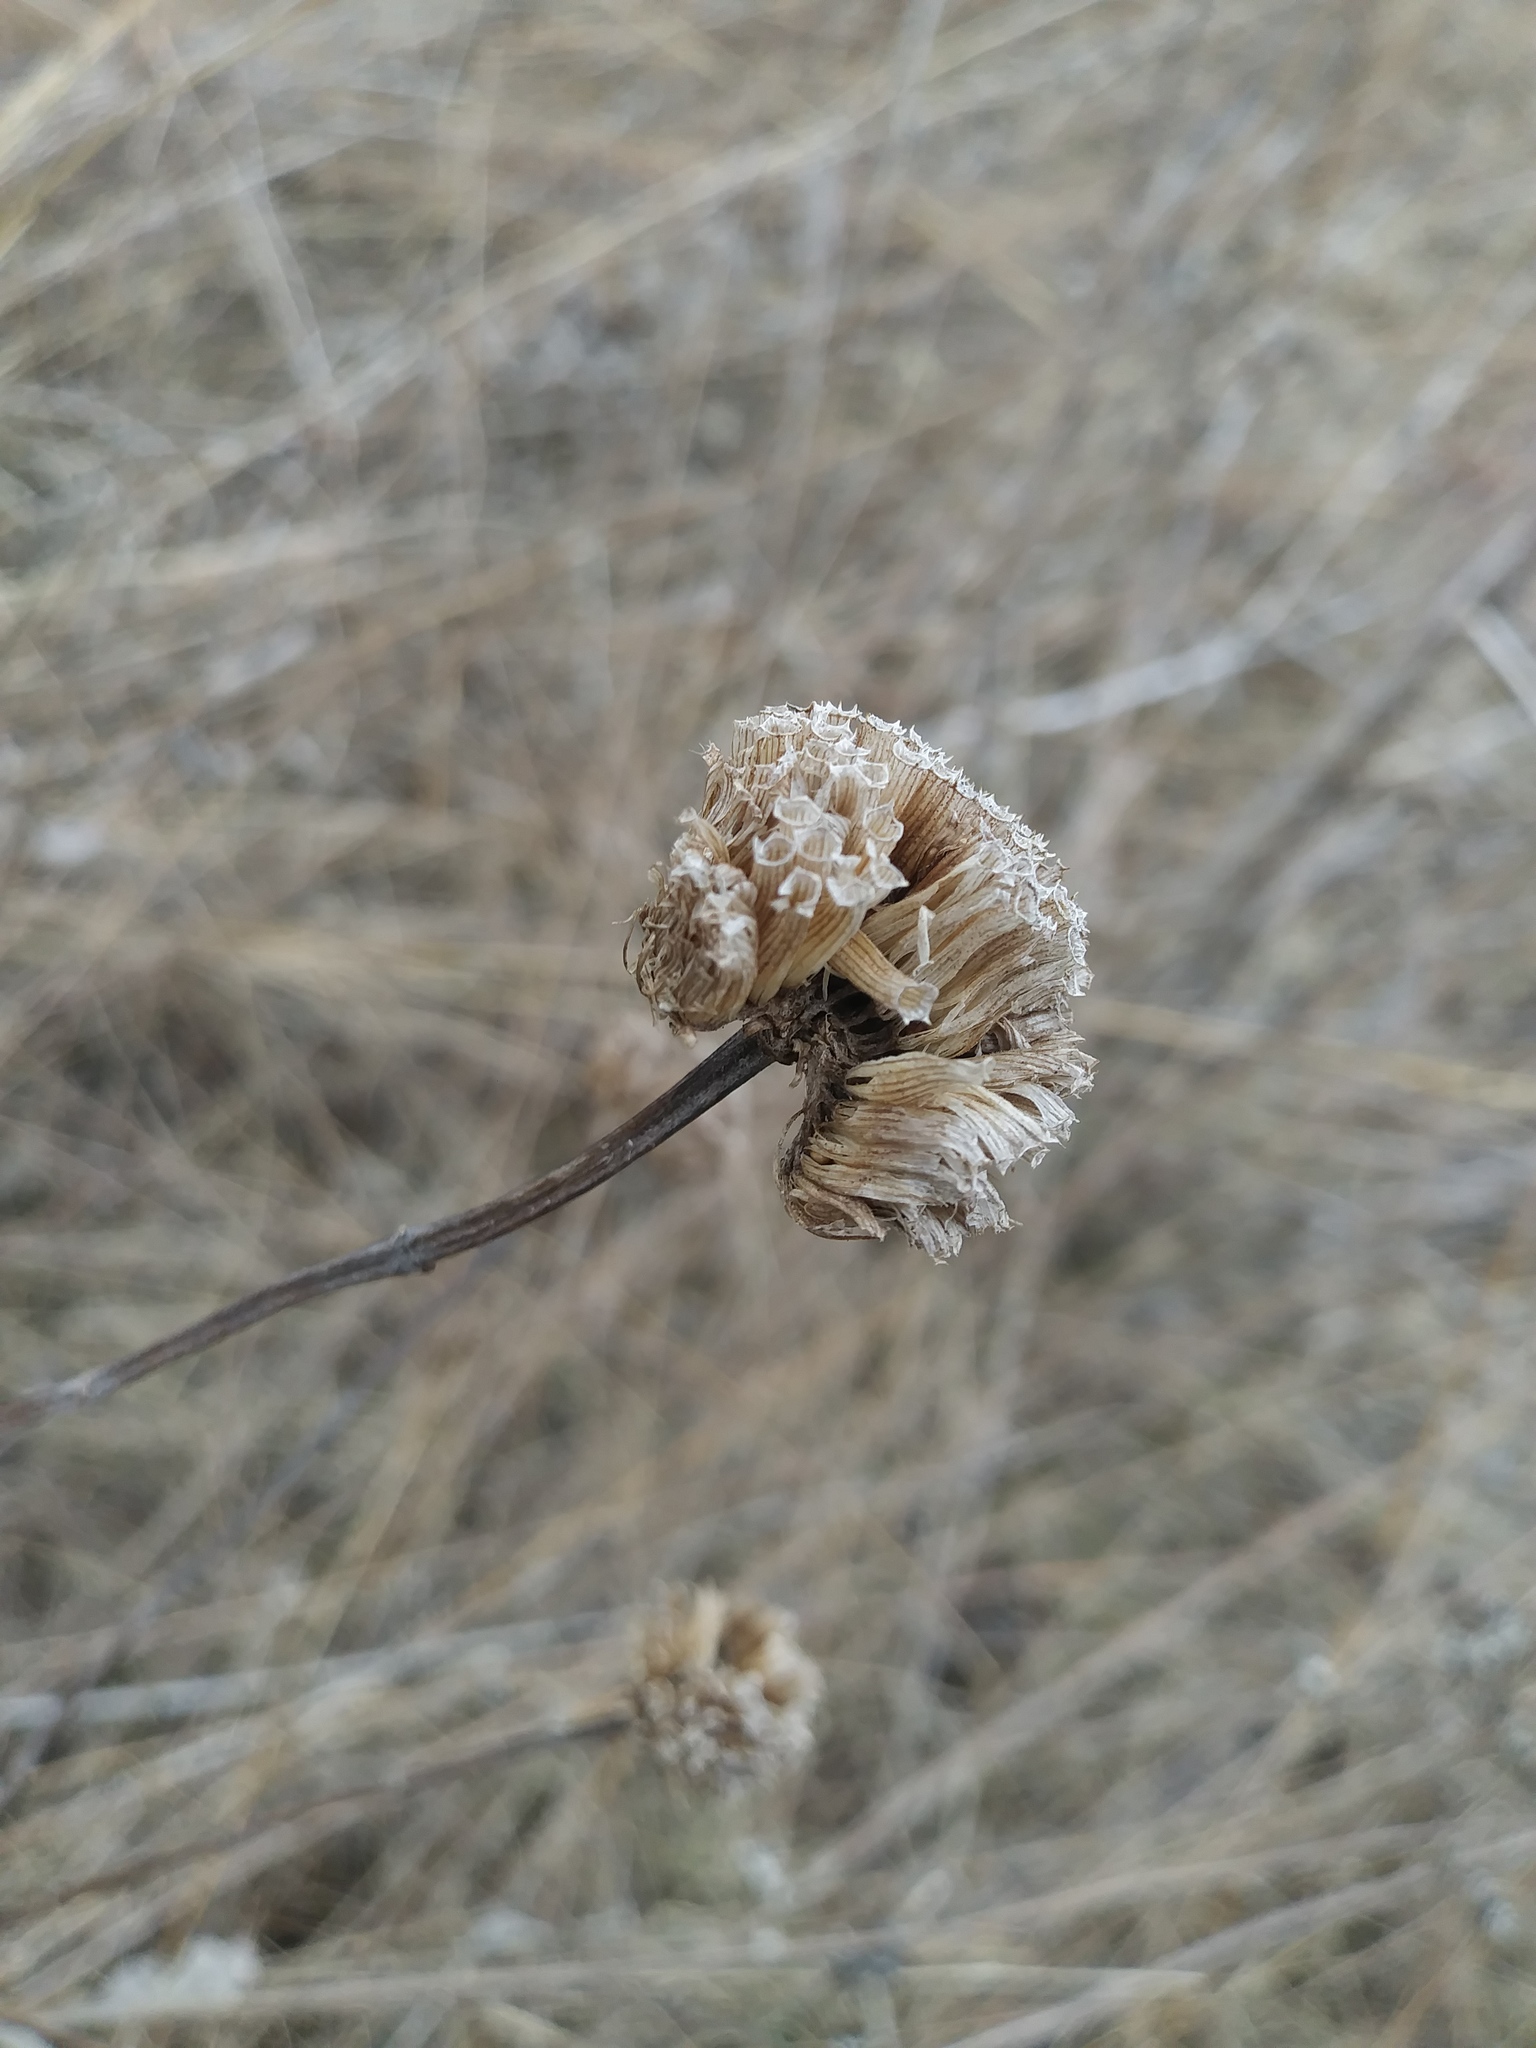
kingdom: Plantae
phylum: Tracheophyta
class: Magnoliopsida
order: Lamiales
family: Lamiaceae
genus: Monarda
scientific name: Monarda fistulosa
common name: Purple beebalm
